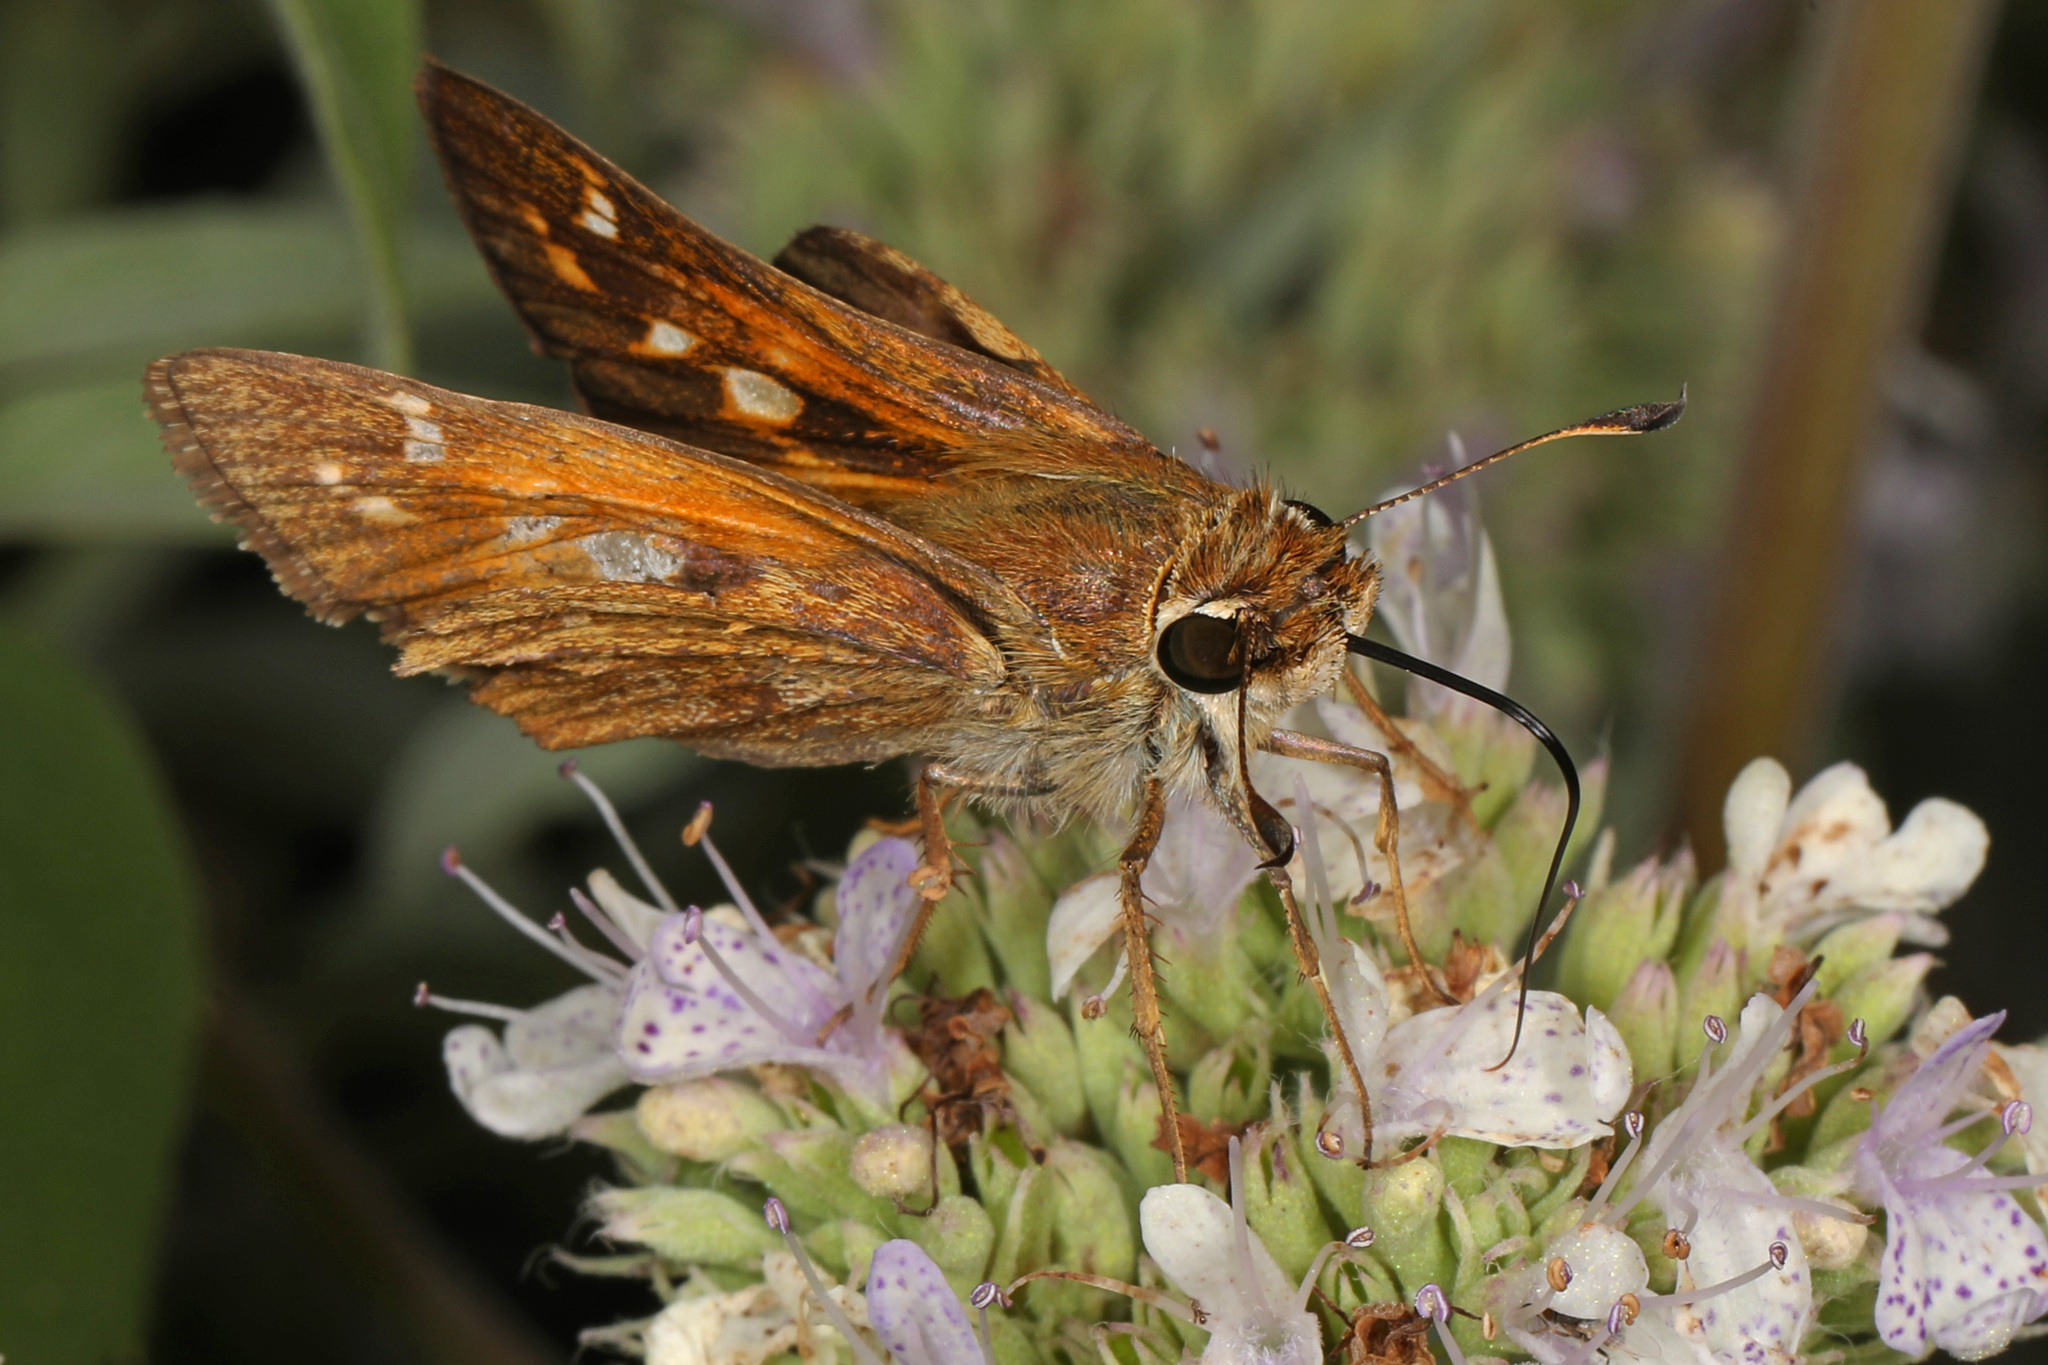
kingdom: Animalia
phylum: Arthropoda
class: Insecta
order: Lepidoptera
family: Hesperiidae
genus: Atalopedes
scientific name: Atalopedes
